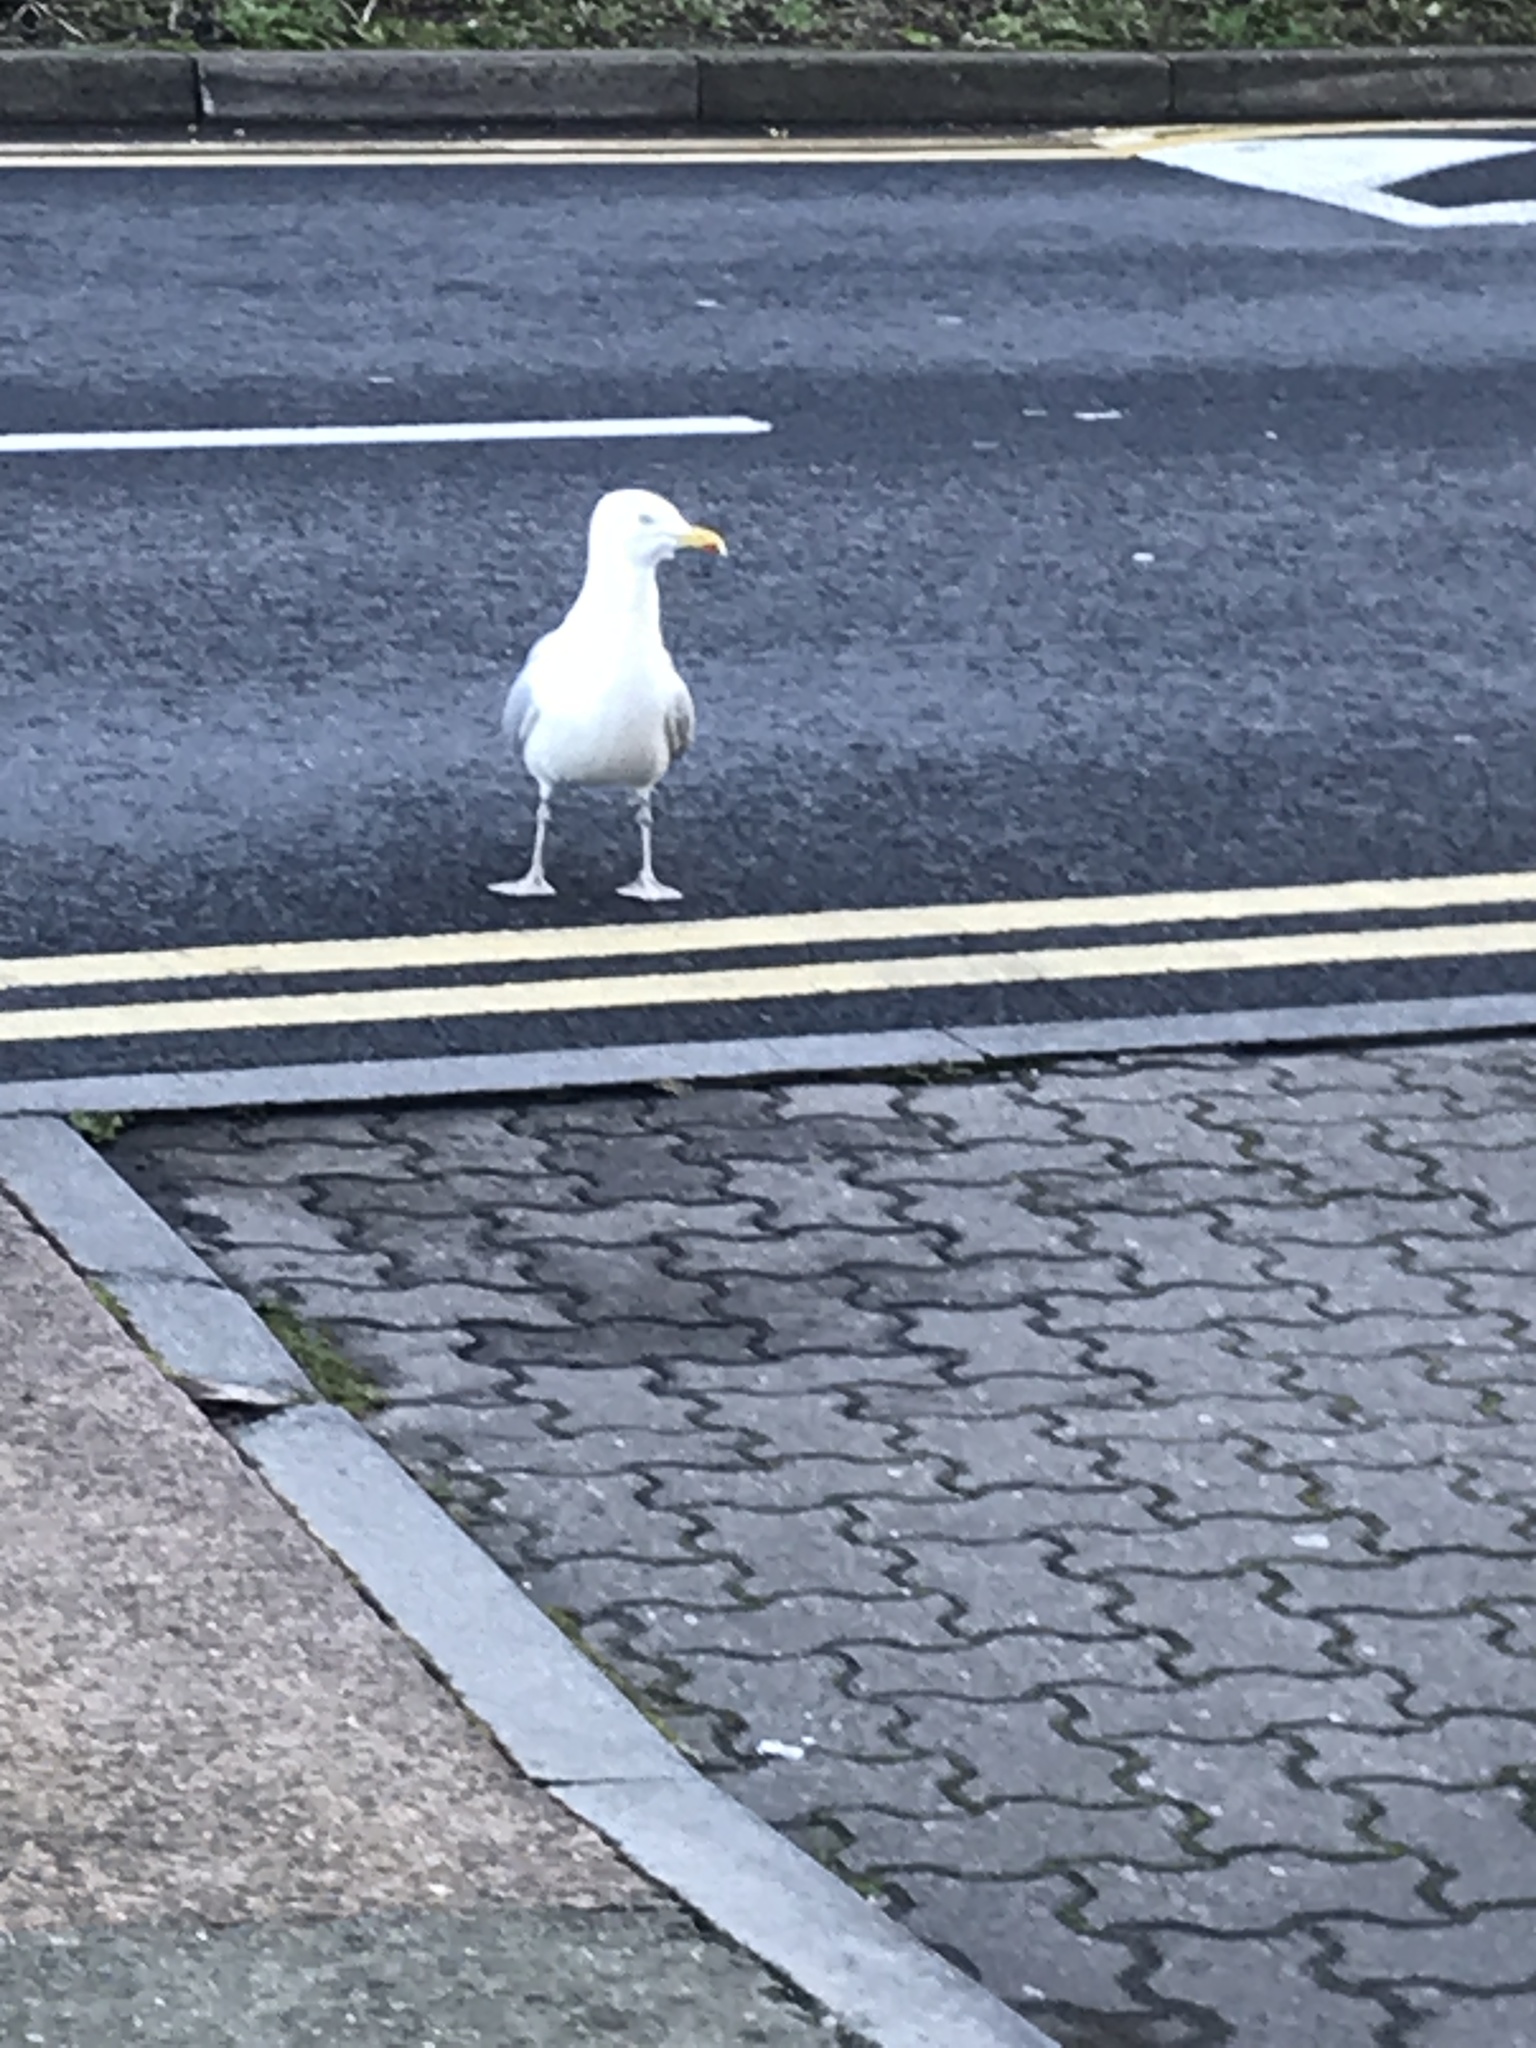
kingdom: Animalia
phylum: Chordata
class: Aves
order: Charadriiformes
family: Laridae
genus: Larus
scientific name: Larus argentatus
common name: Herring gull
